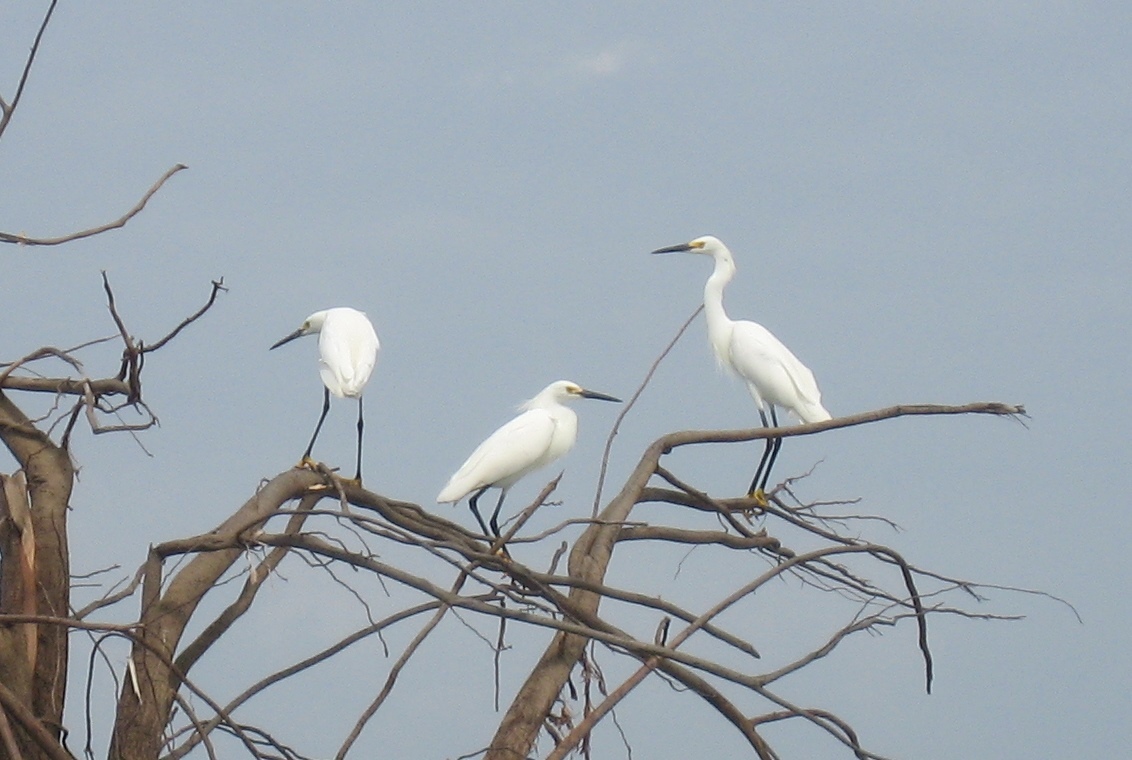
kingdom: Animalia
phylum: Chordata
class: Aves
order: Pelecaniformes
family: Ardeidae
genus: Egretta
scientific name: Egretta thula
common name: Snowy egret
